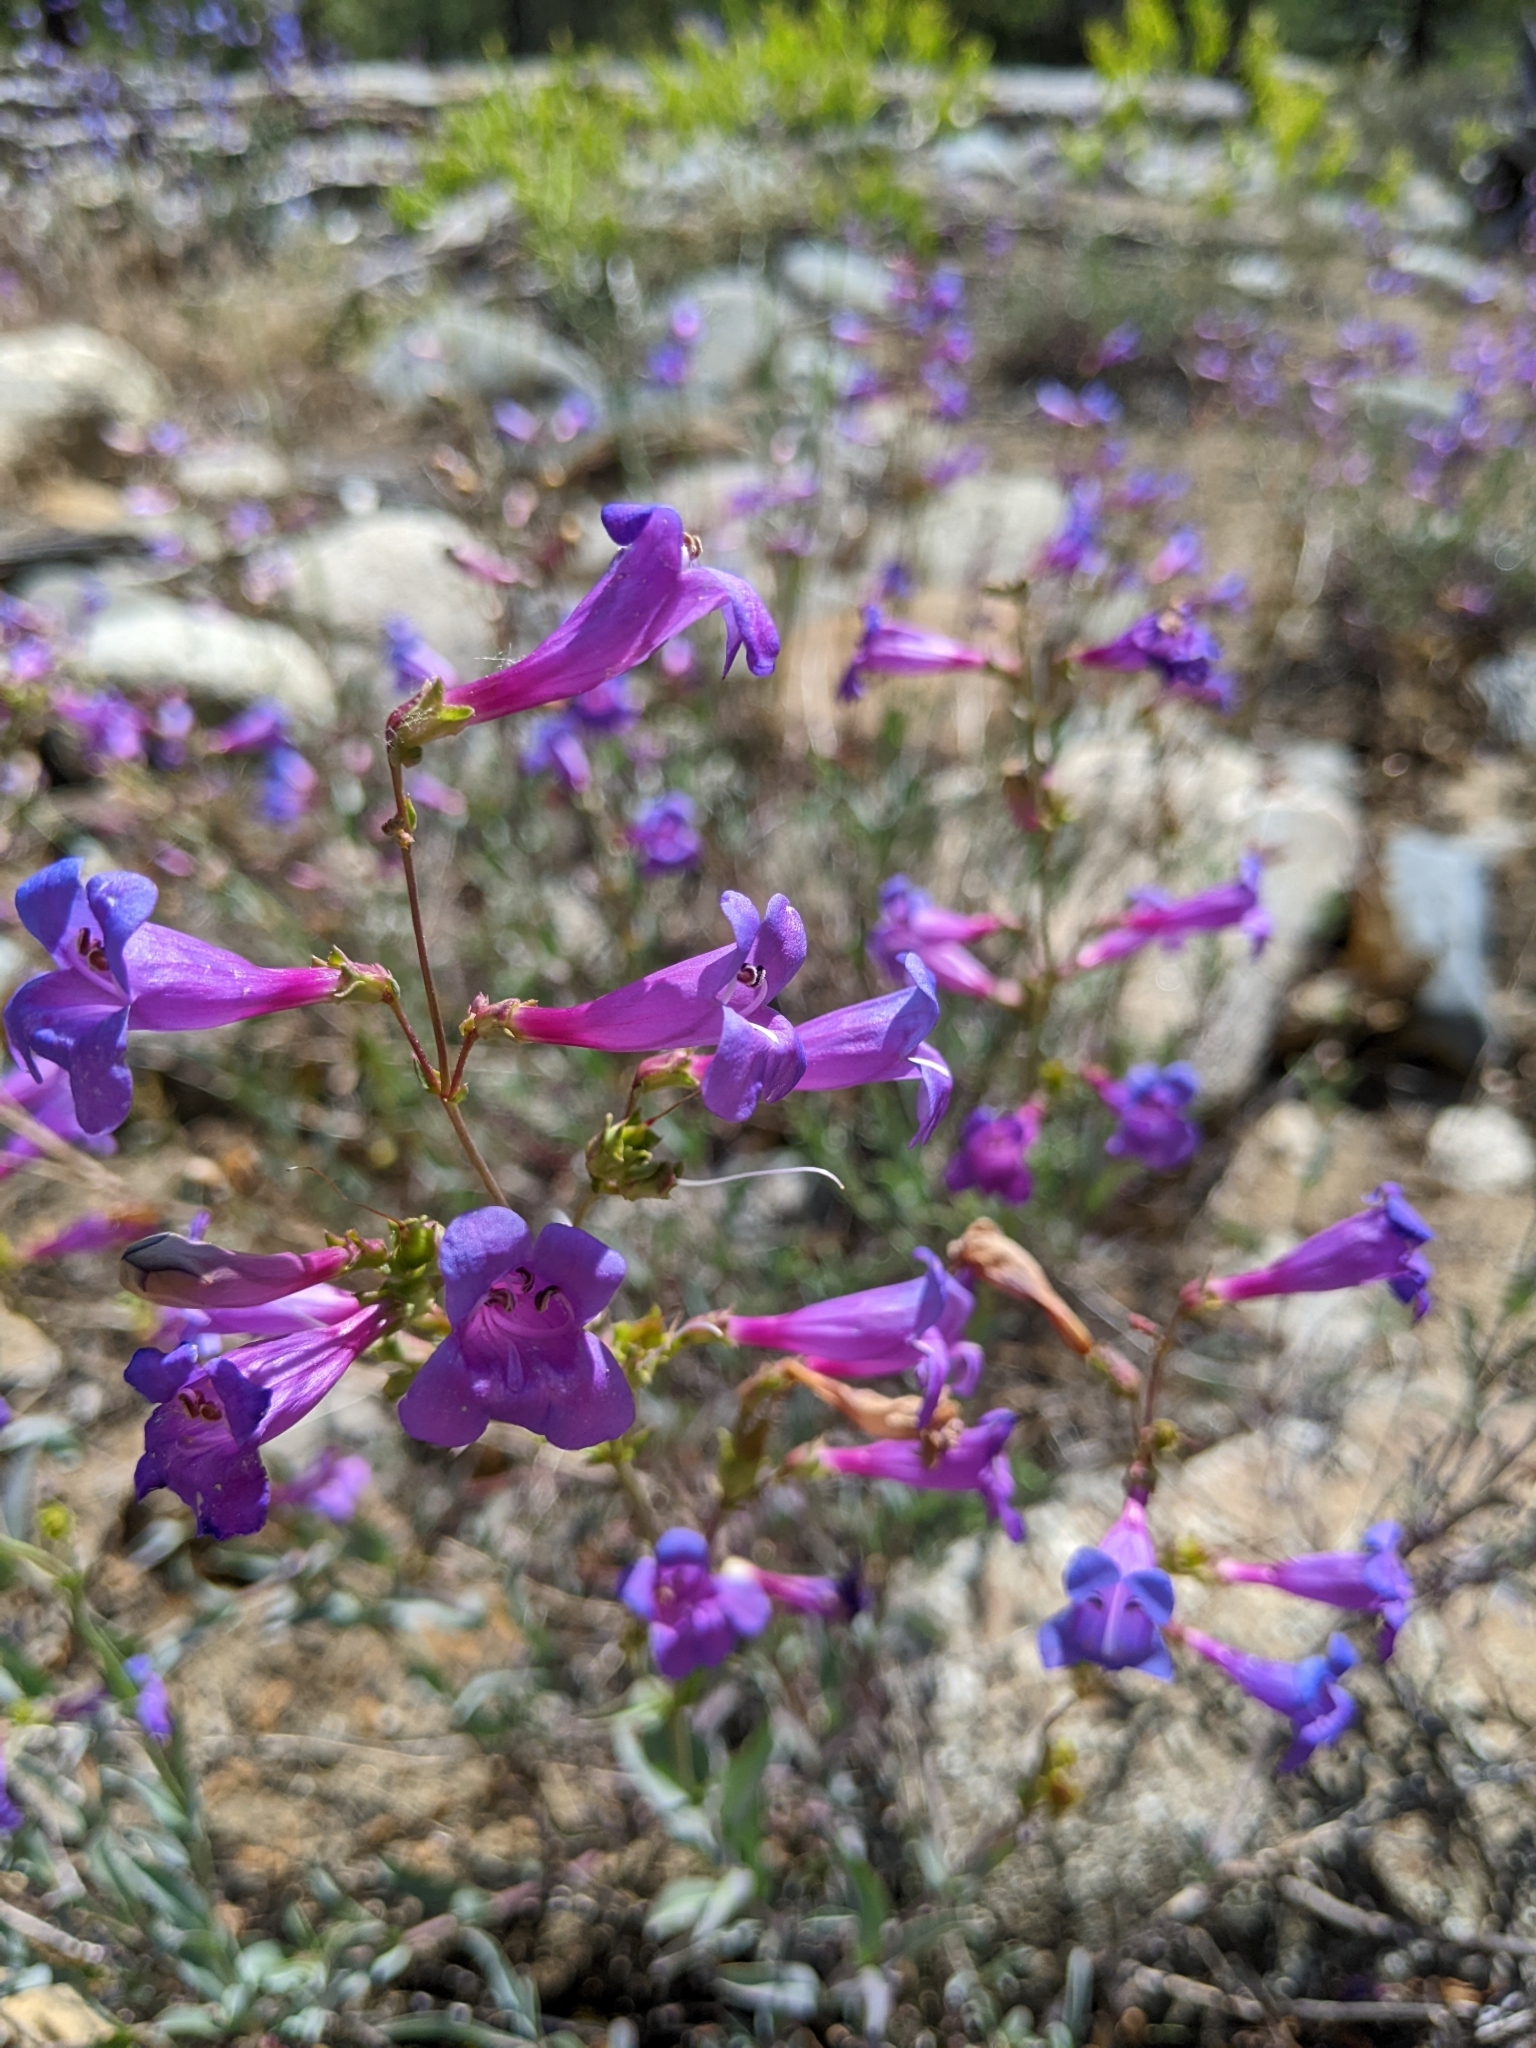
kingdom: Plantae
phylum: Tracheophyta
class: Magnoliopsida
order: Lamiales
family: Plantaginaceae
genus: Penstemon
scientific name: Penstemon azureus
